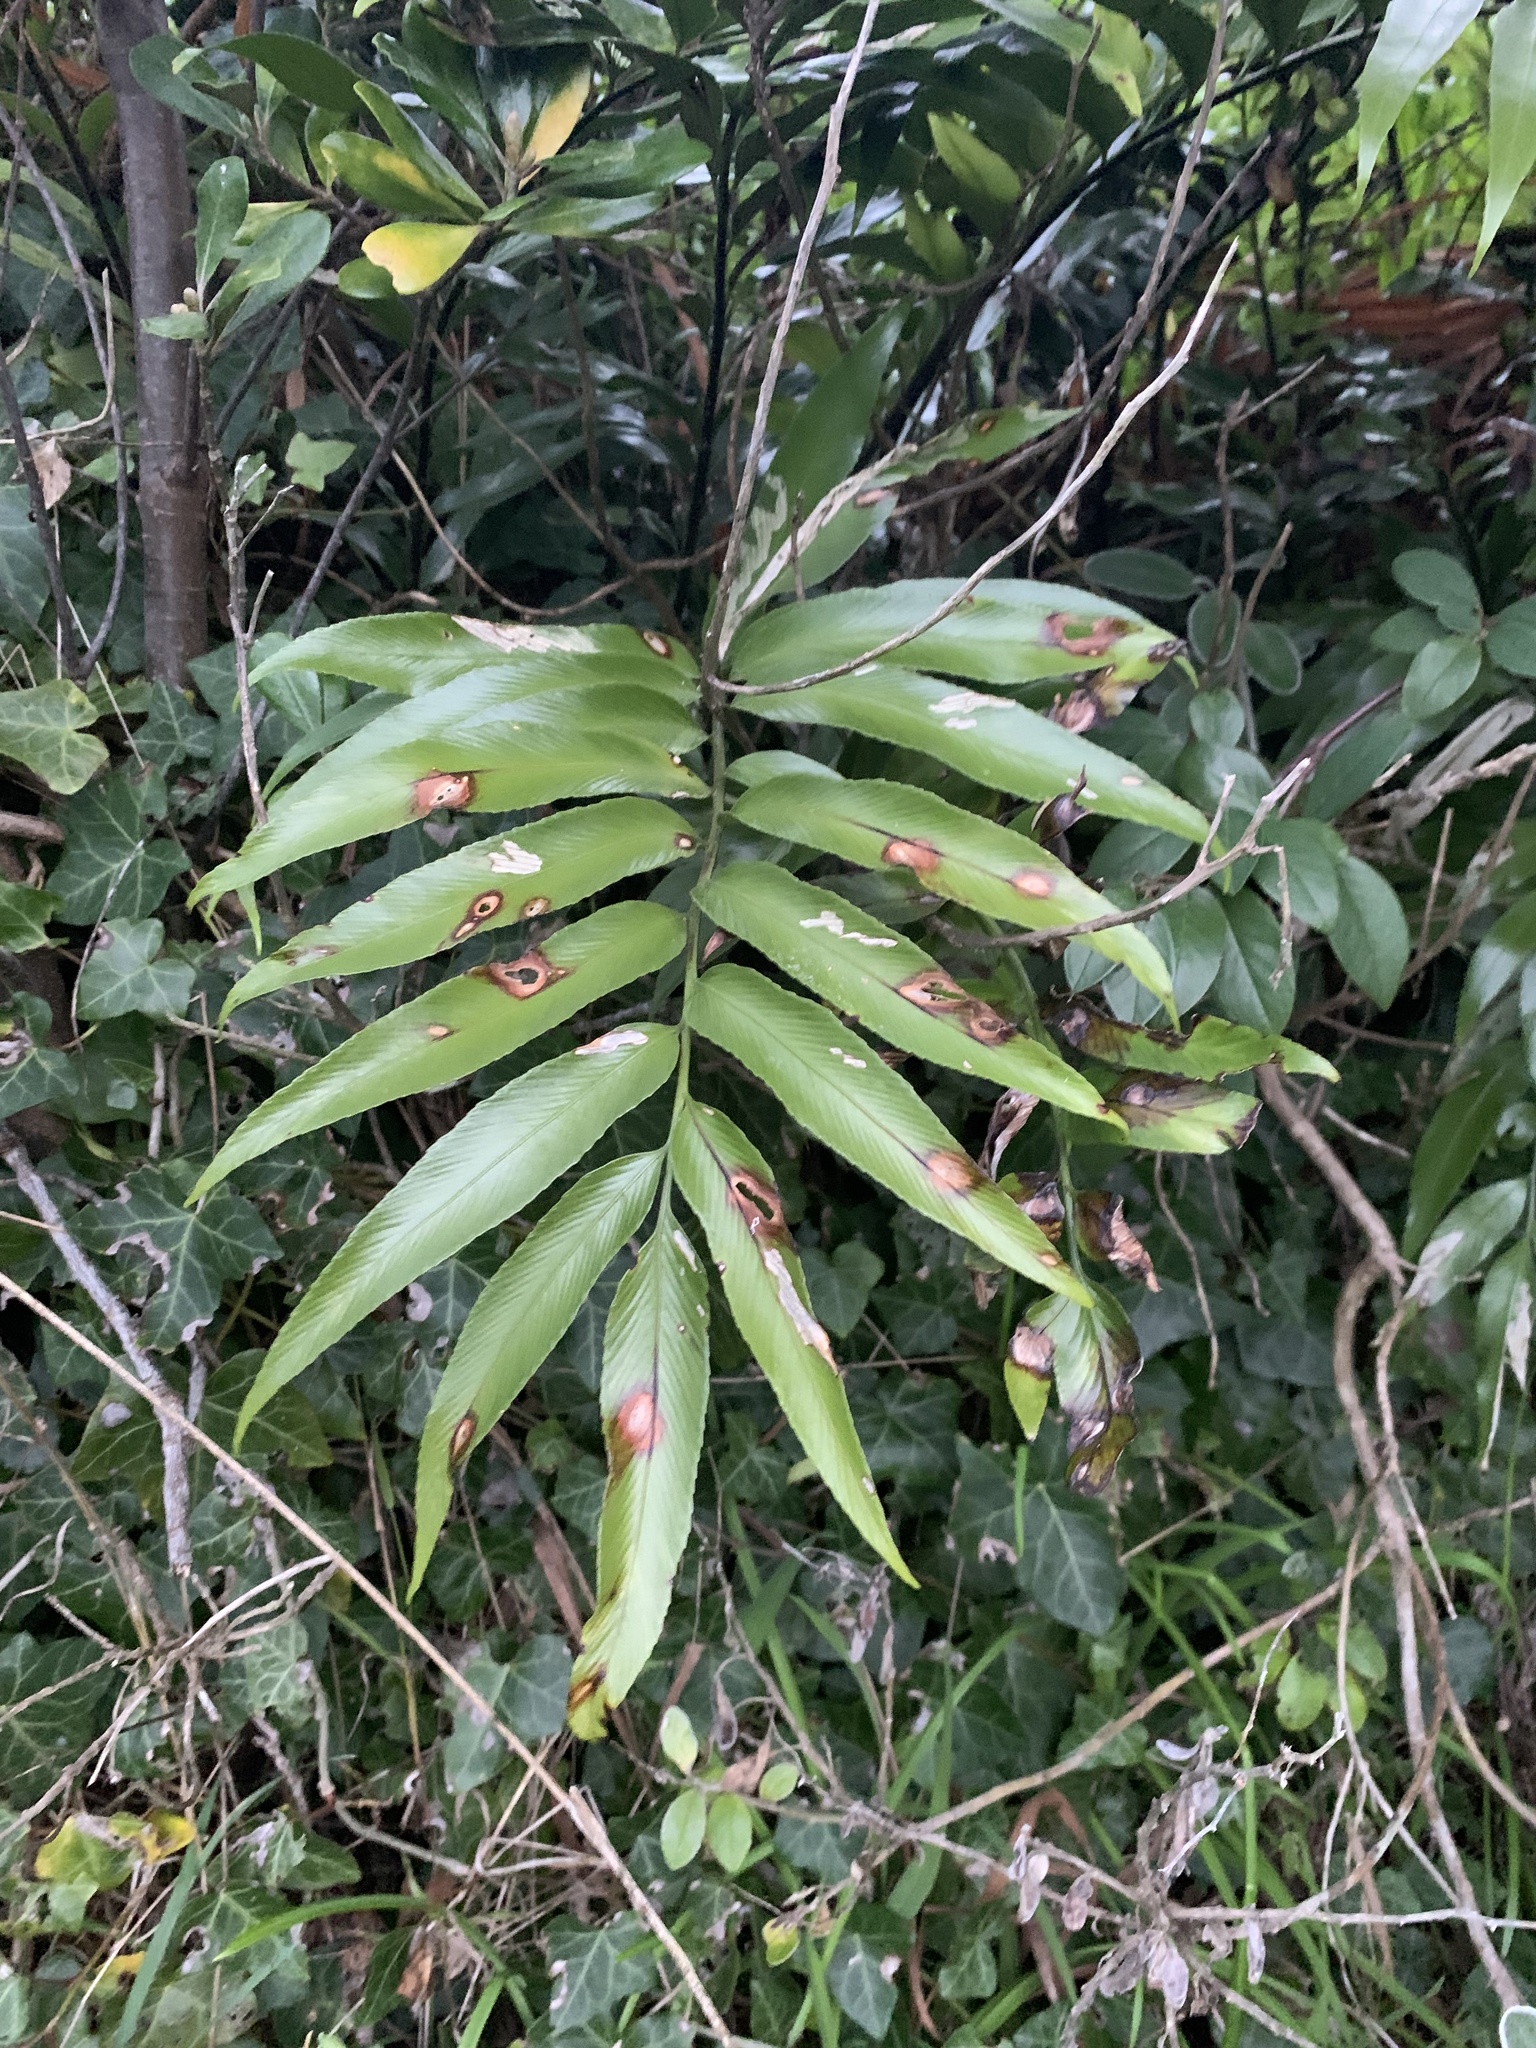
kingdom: Plantae
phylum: Tracheophyta
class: Polypodiopsida
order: Polypodiales
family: Aspleniaceae
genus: Asplenium
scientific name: Asplenium oblongifolium
